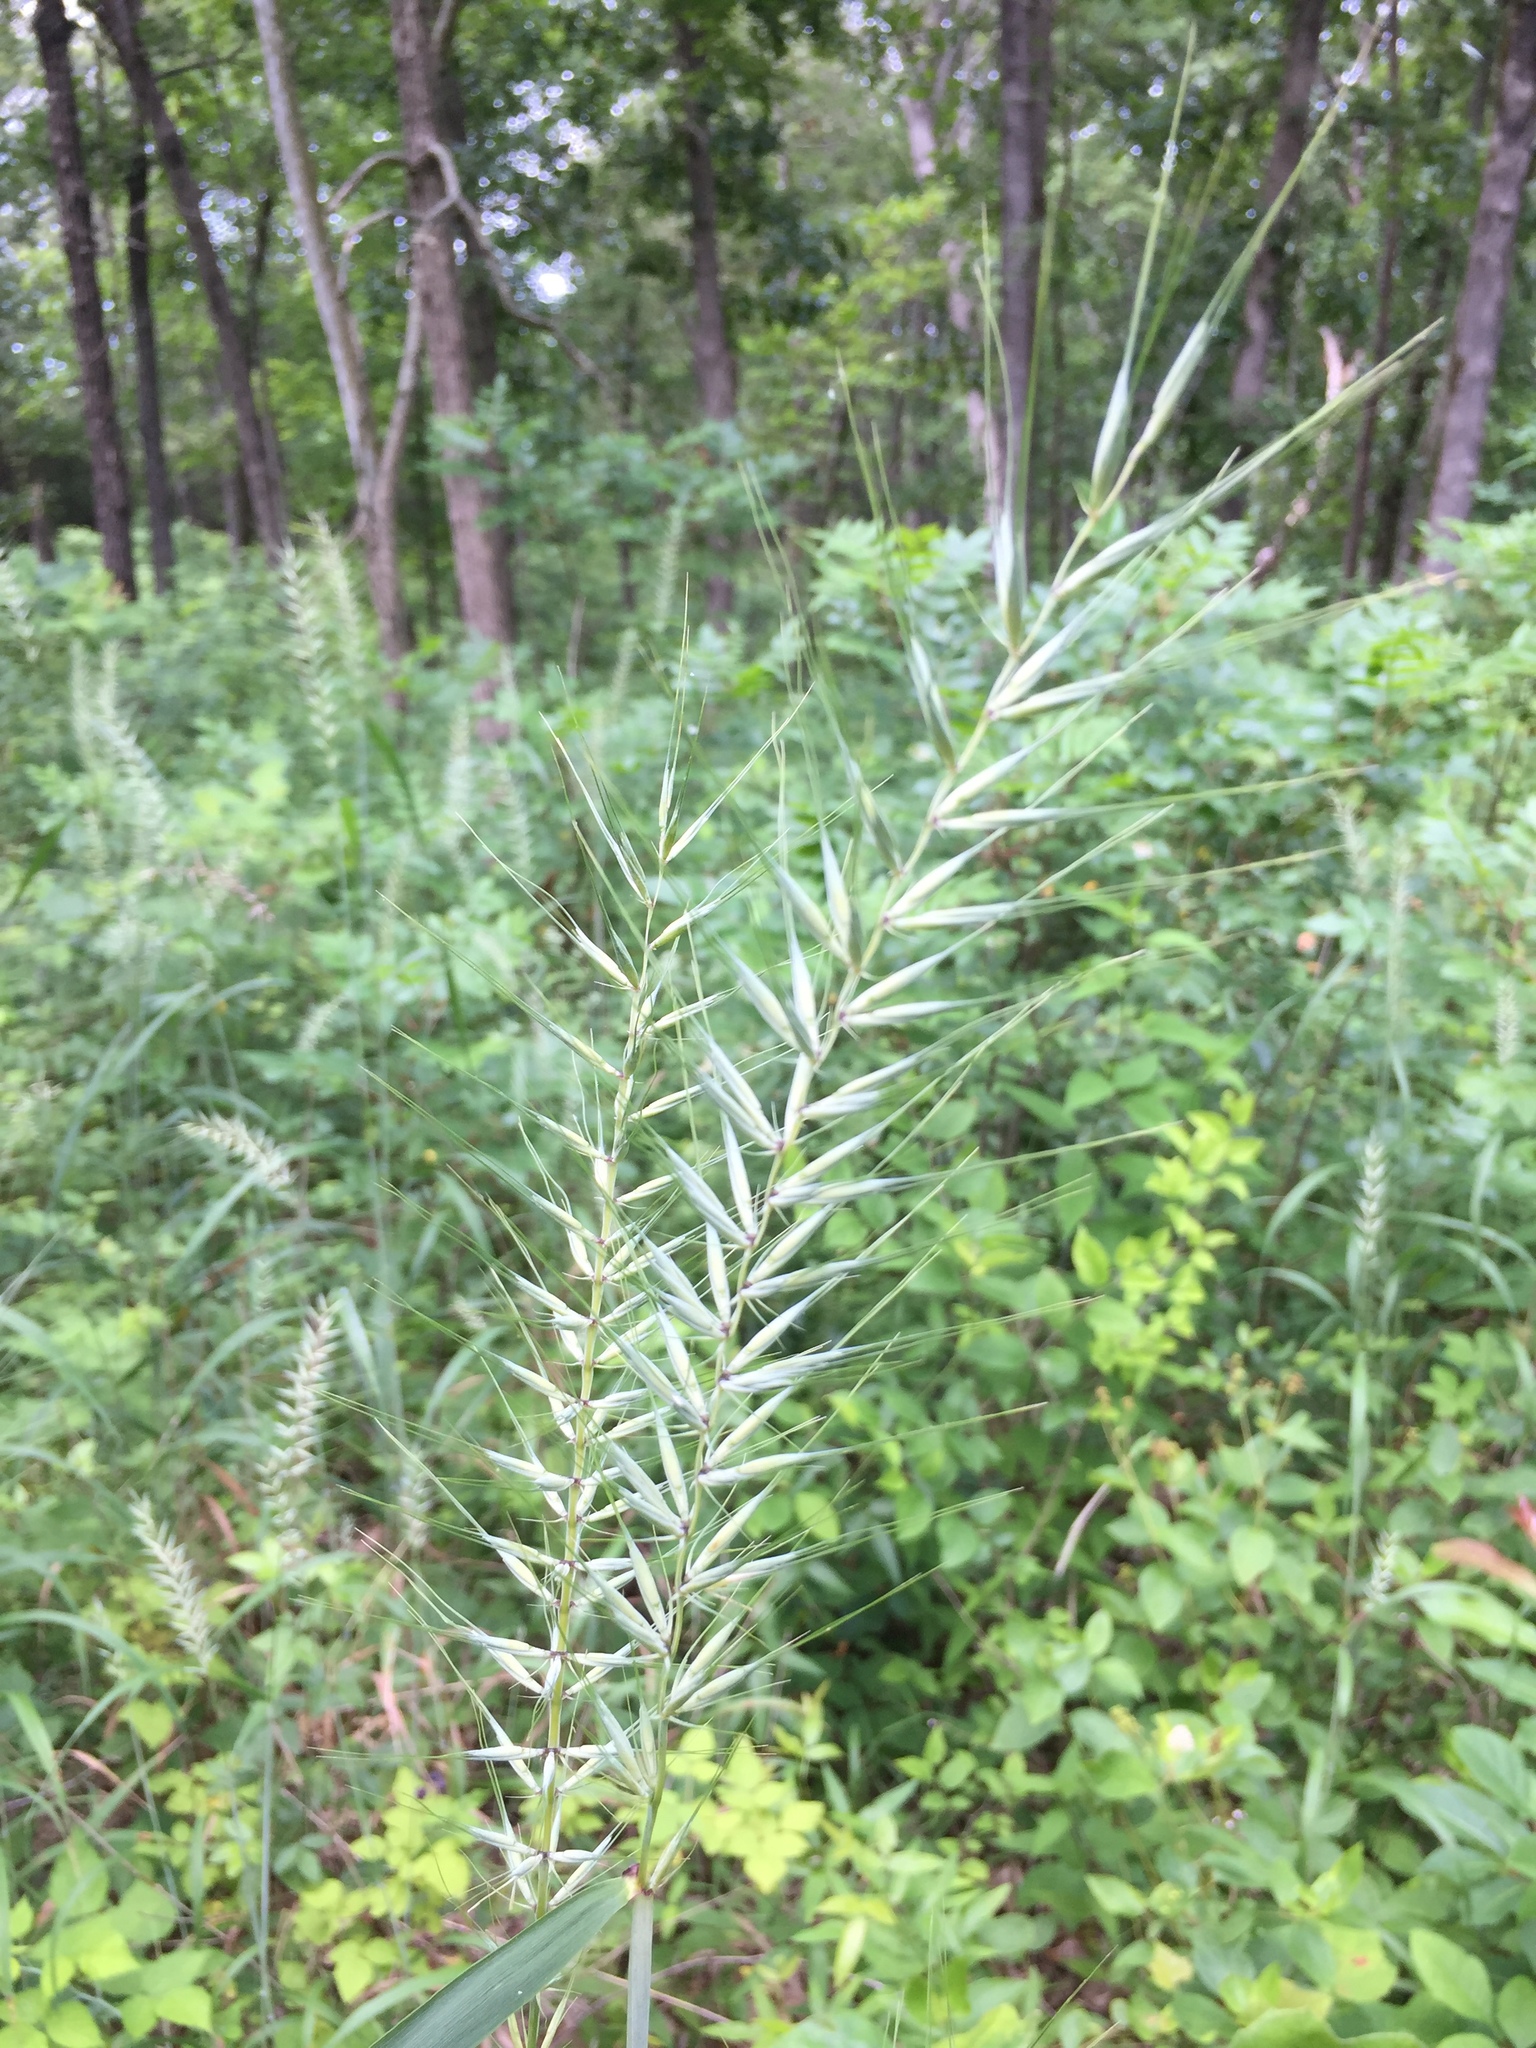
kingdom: Plantae
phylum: Tracheophyta
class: Liliopsida
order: Poales
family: Poaceae
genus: Elymus
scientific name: Elymus hystrix
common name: Bottlebrush grass
